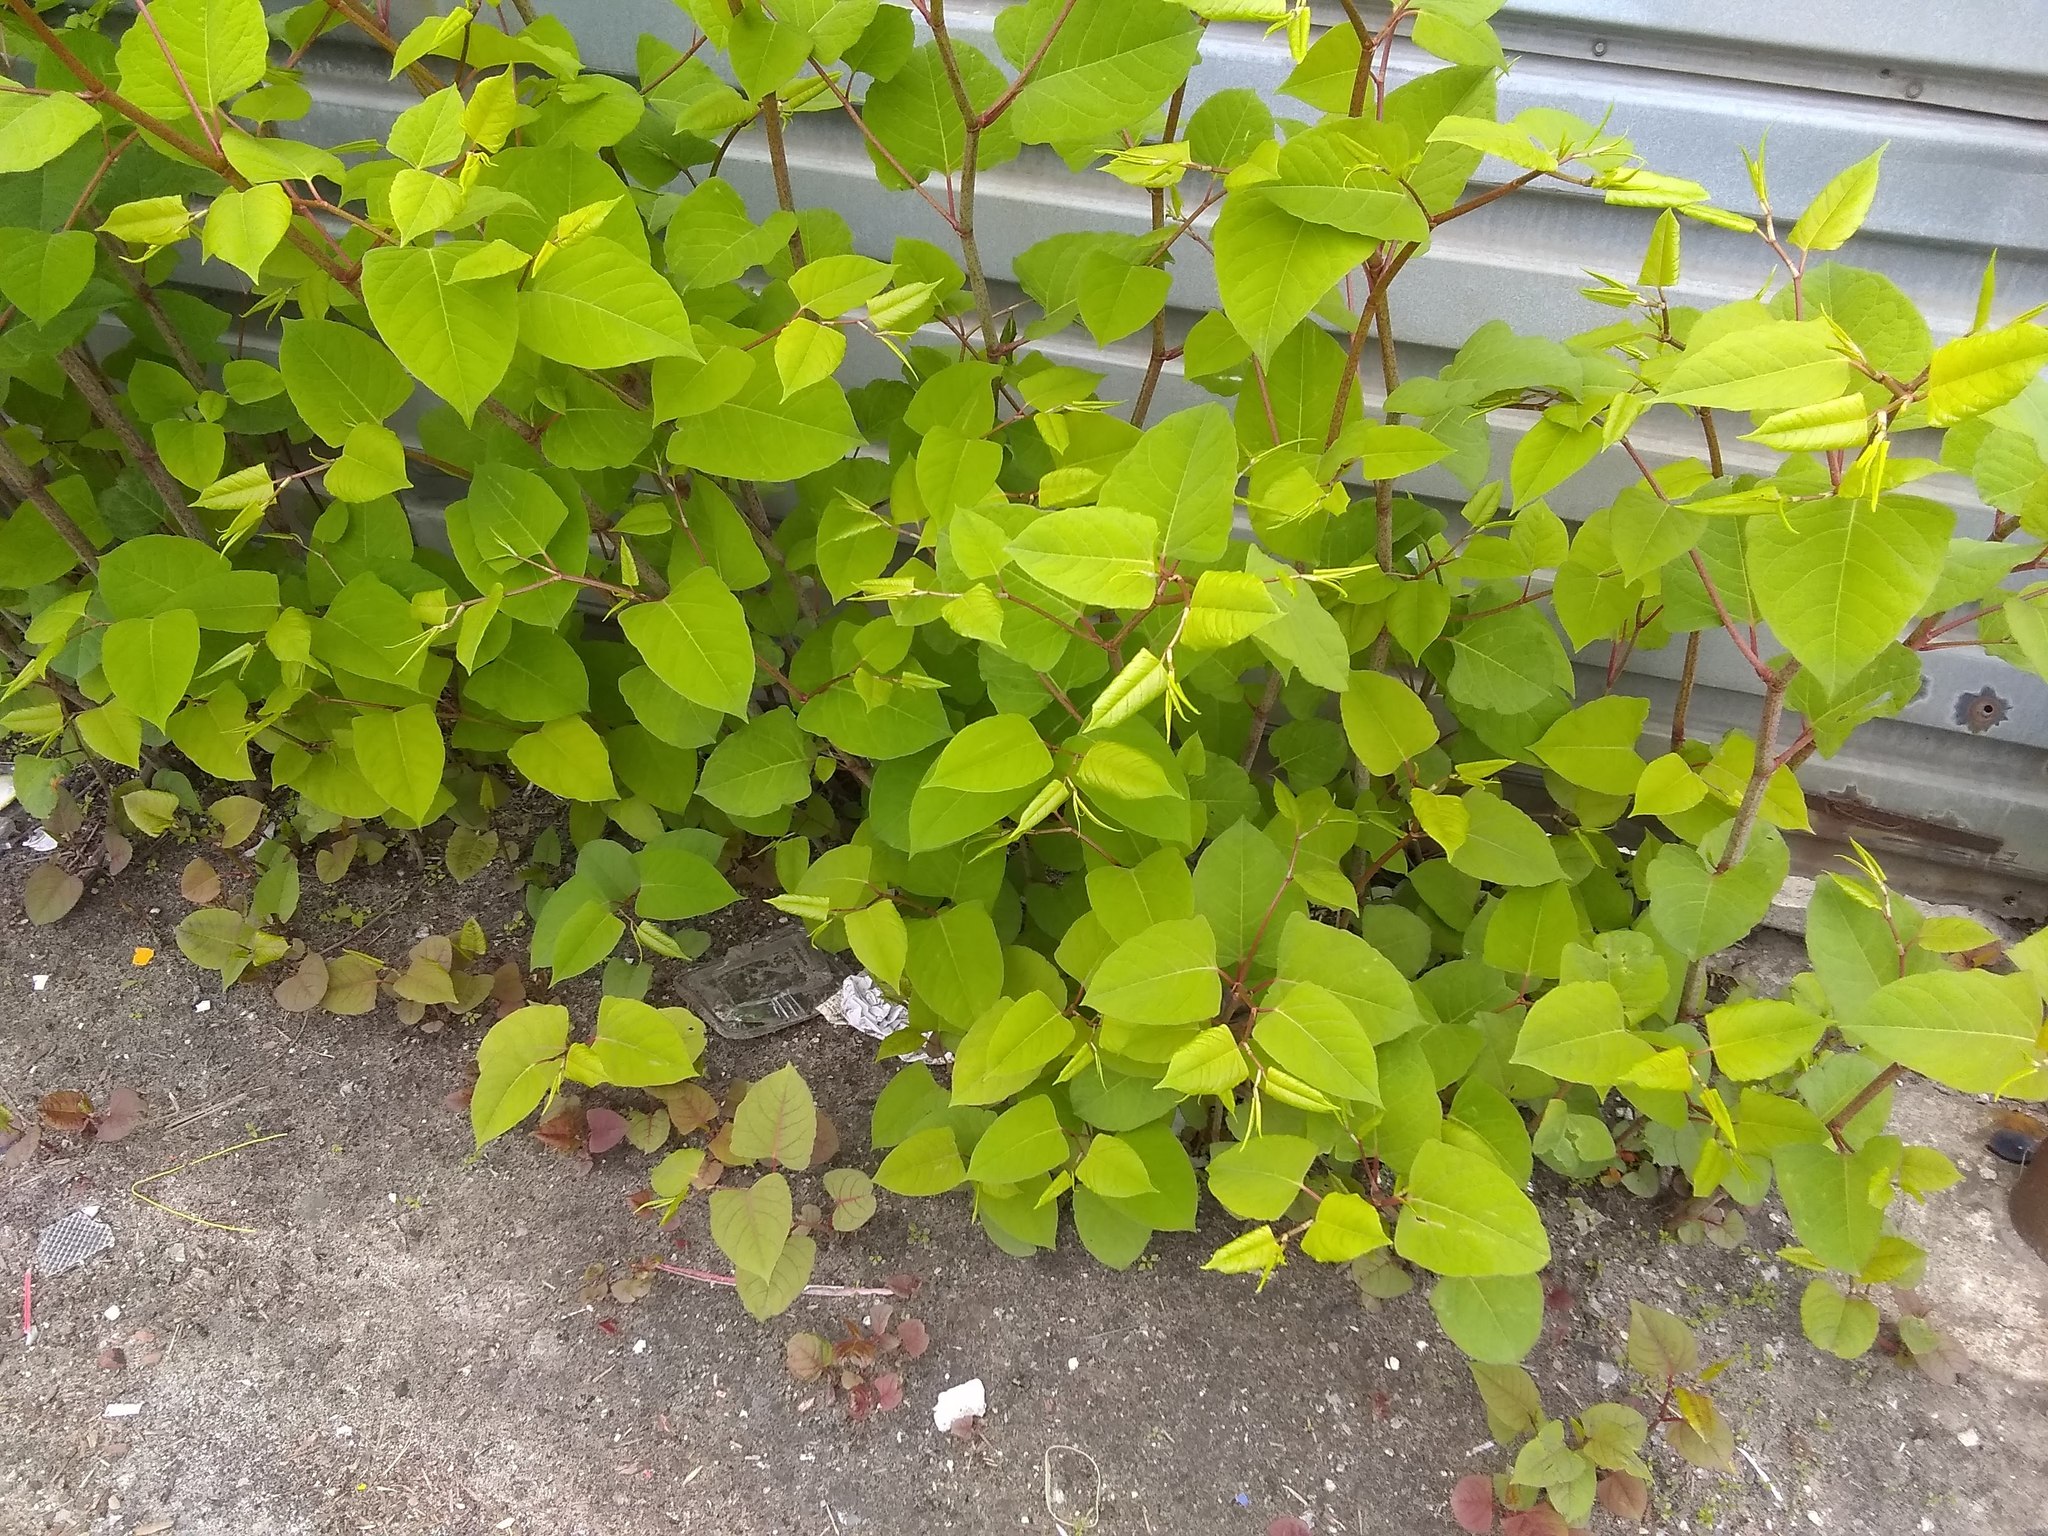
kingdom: Plantae
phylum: Tracheophyta
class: Magnoliopsida
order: Caryophyllales
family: Polygonaceae
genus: Reynoutria
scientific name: Reynoutria japonica
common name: Japanese knotweed
